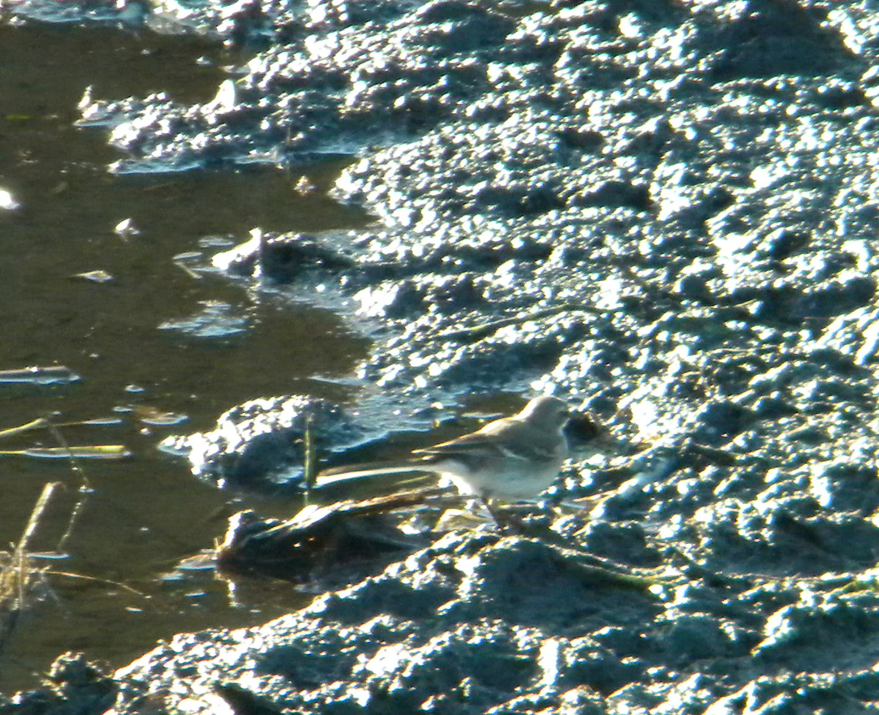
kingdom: Animalia
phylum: Chordata
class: Aves
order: Passeriformes
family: Motacillidae
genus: Motacilla
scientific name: Motacilla capensis
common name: Cape wagtail
